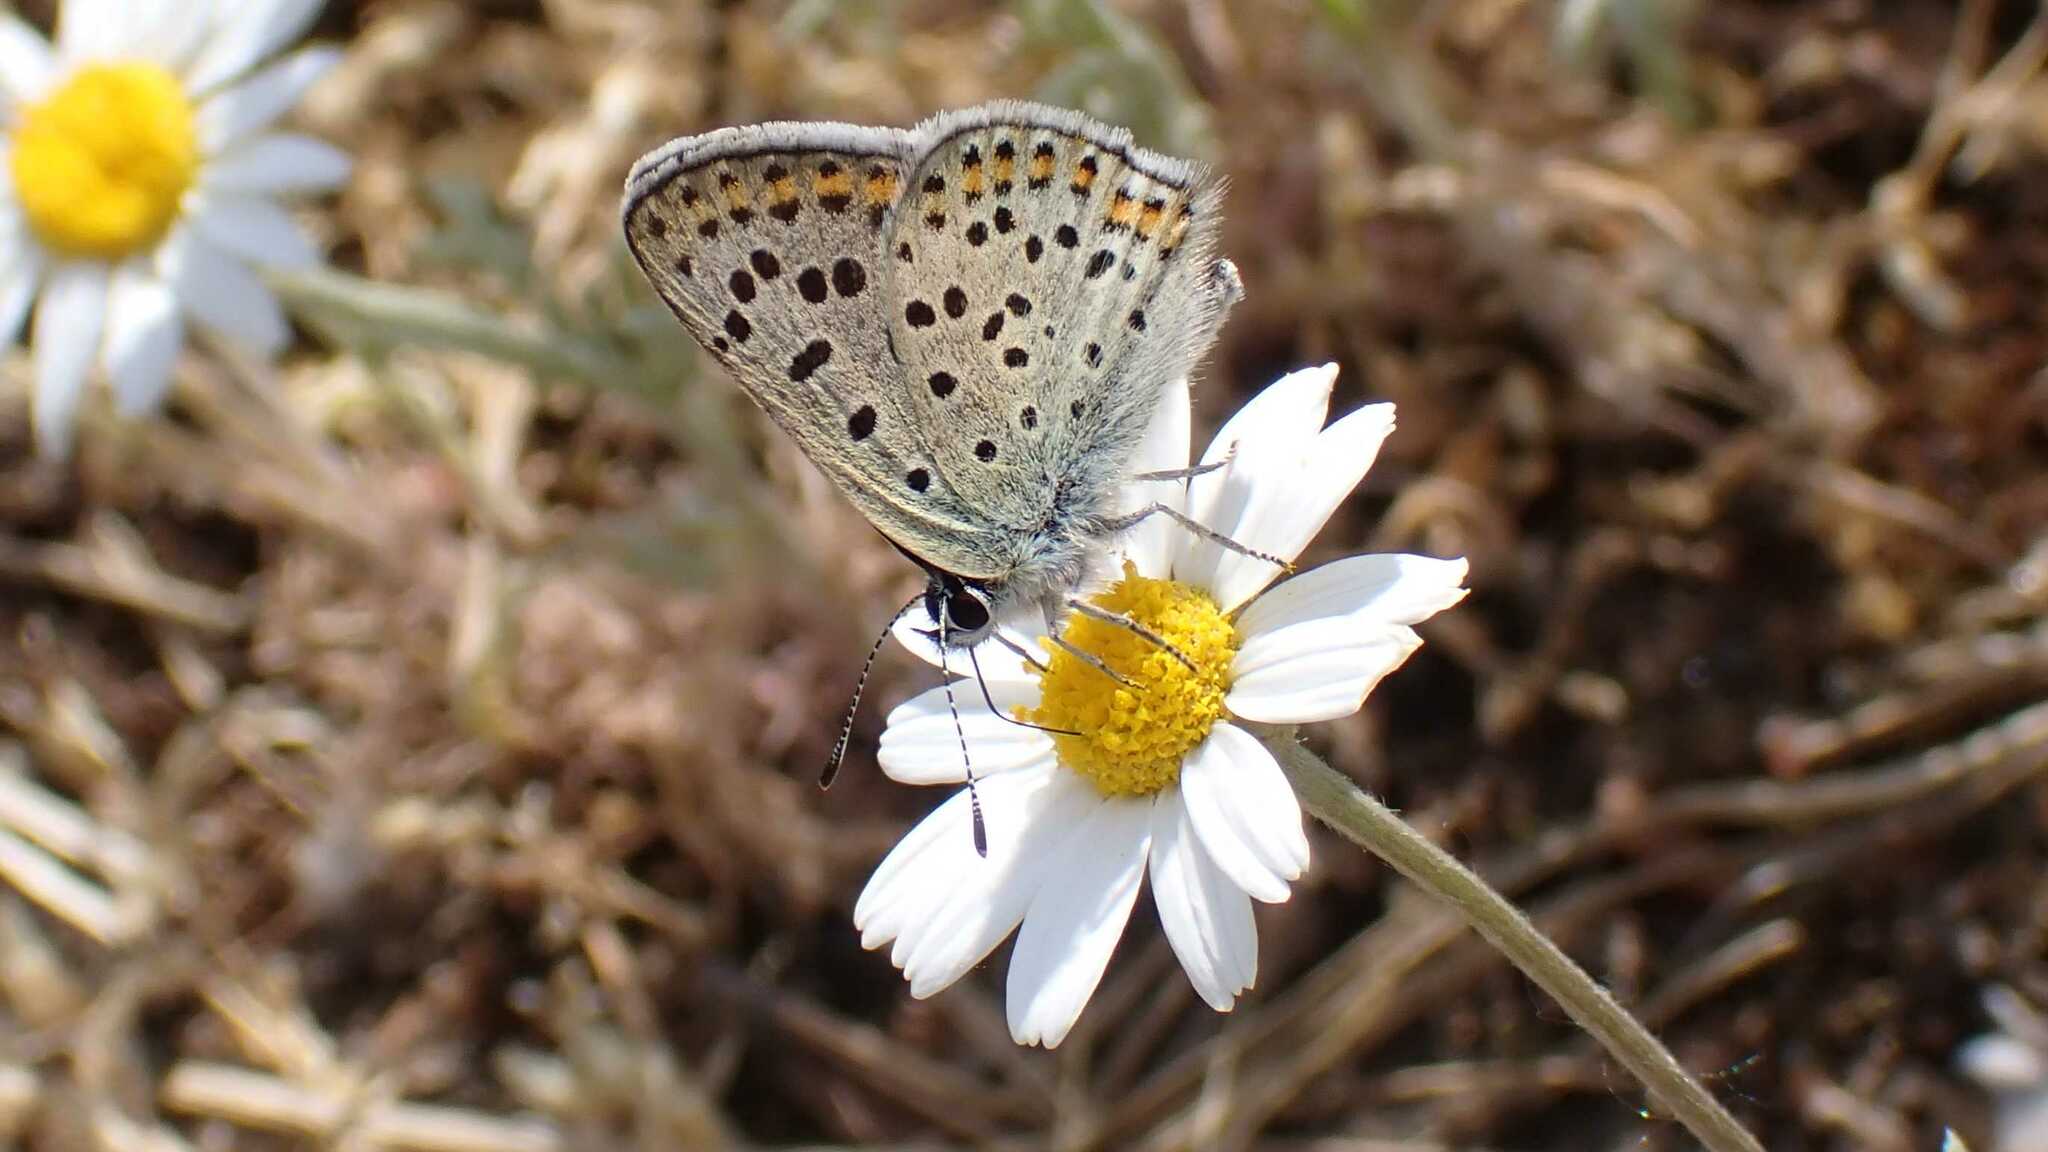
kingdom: Animalia
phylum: Arthropoda
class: Insecta
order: Lepidoptera
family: Lycaenidae
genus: Loweia
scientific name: Loweia tityrus
